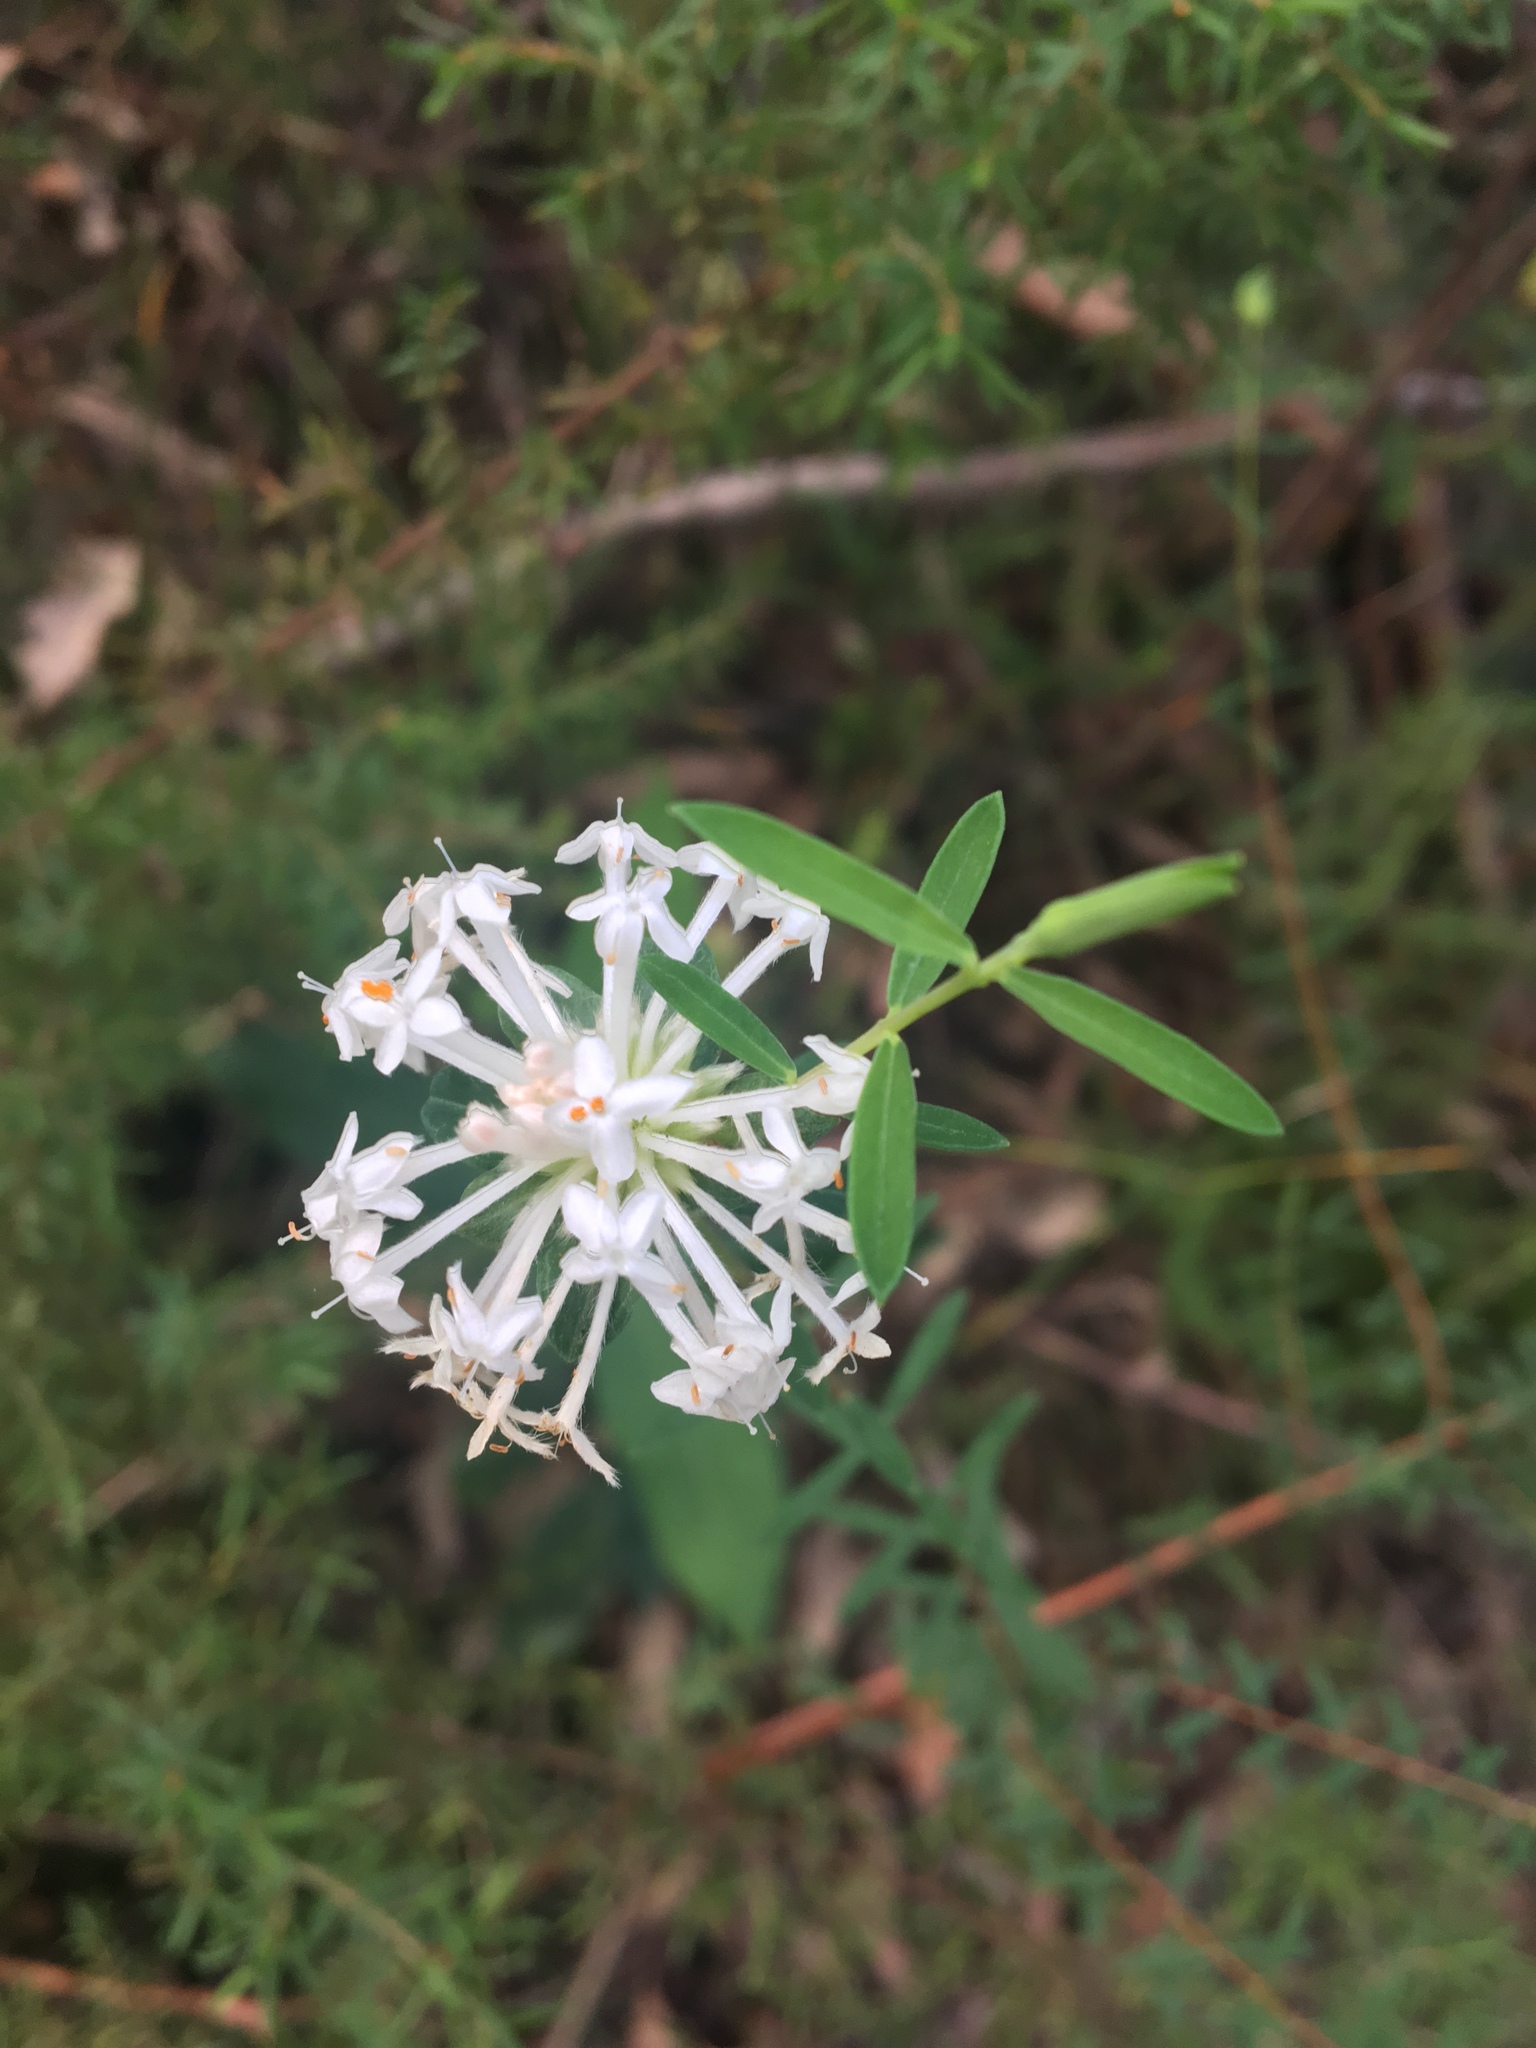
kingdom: Plantae
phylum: Tracheophyta
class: Magnoliopsida
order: Malvales
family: Thymelaeaceae
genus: Pimelea
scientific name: Pimelea linifolia
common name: Queen-of-the-bush
